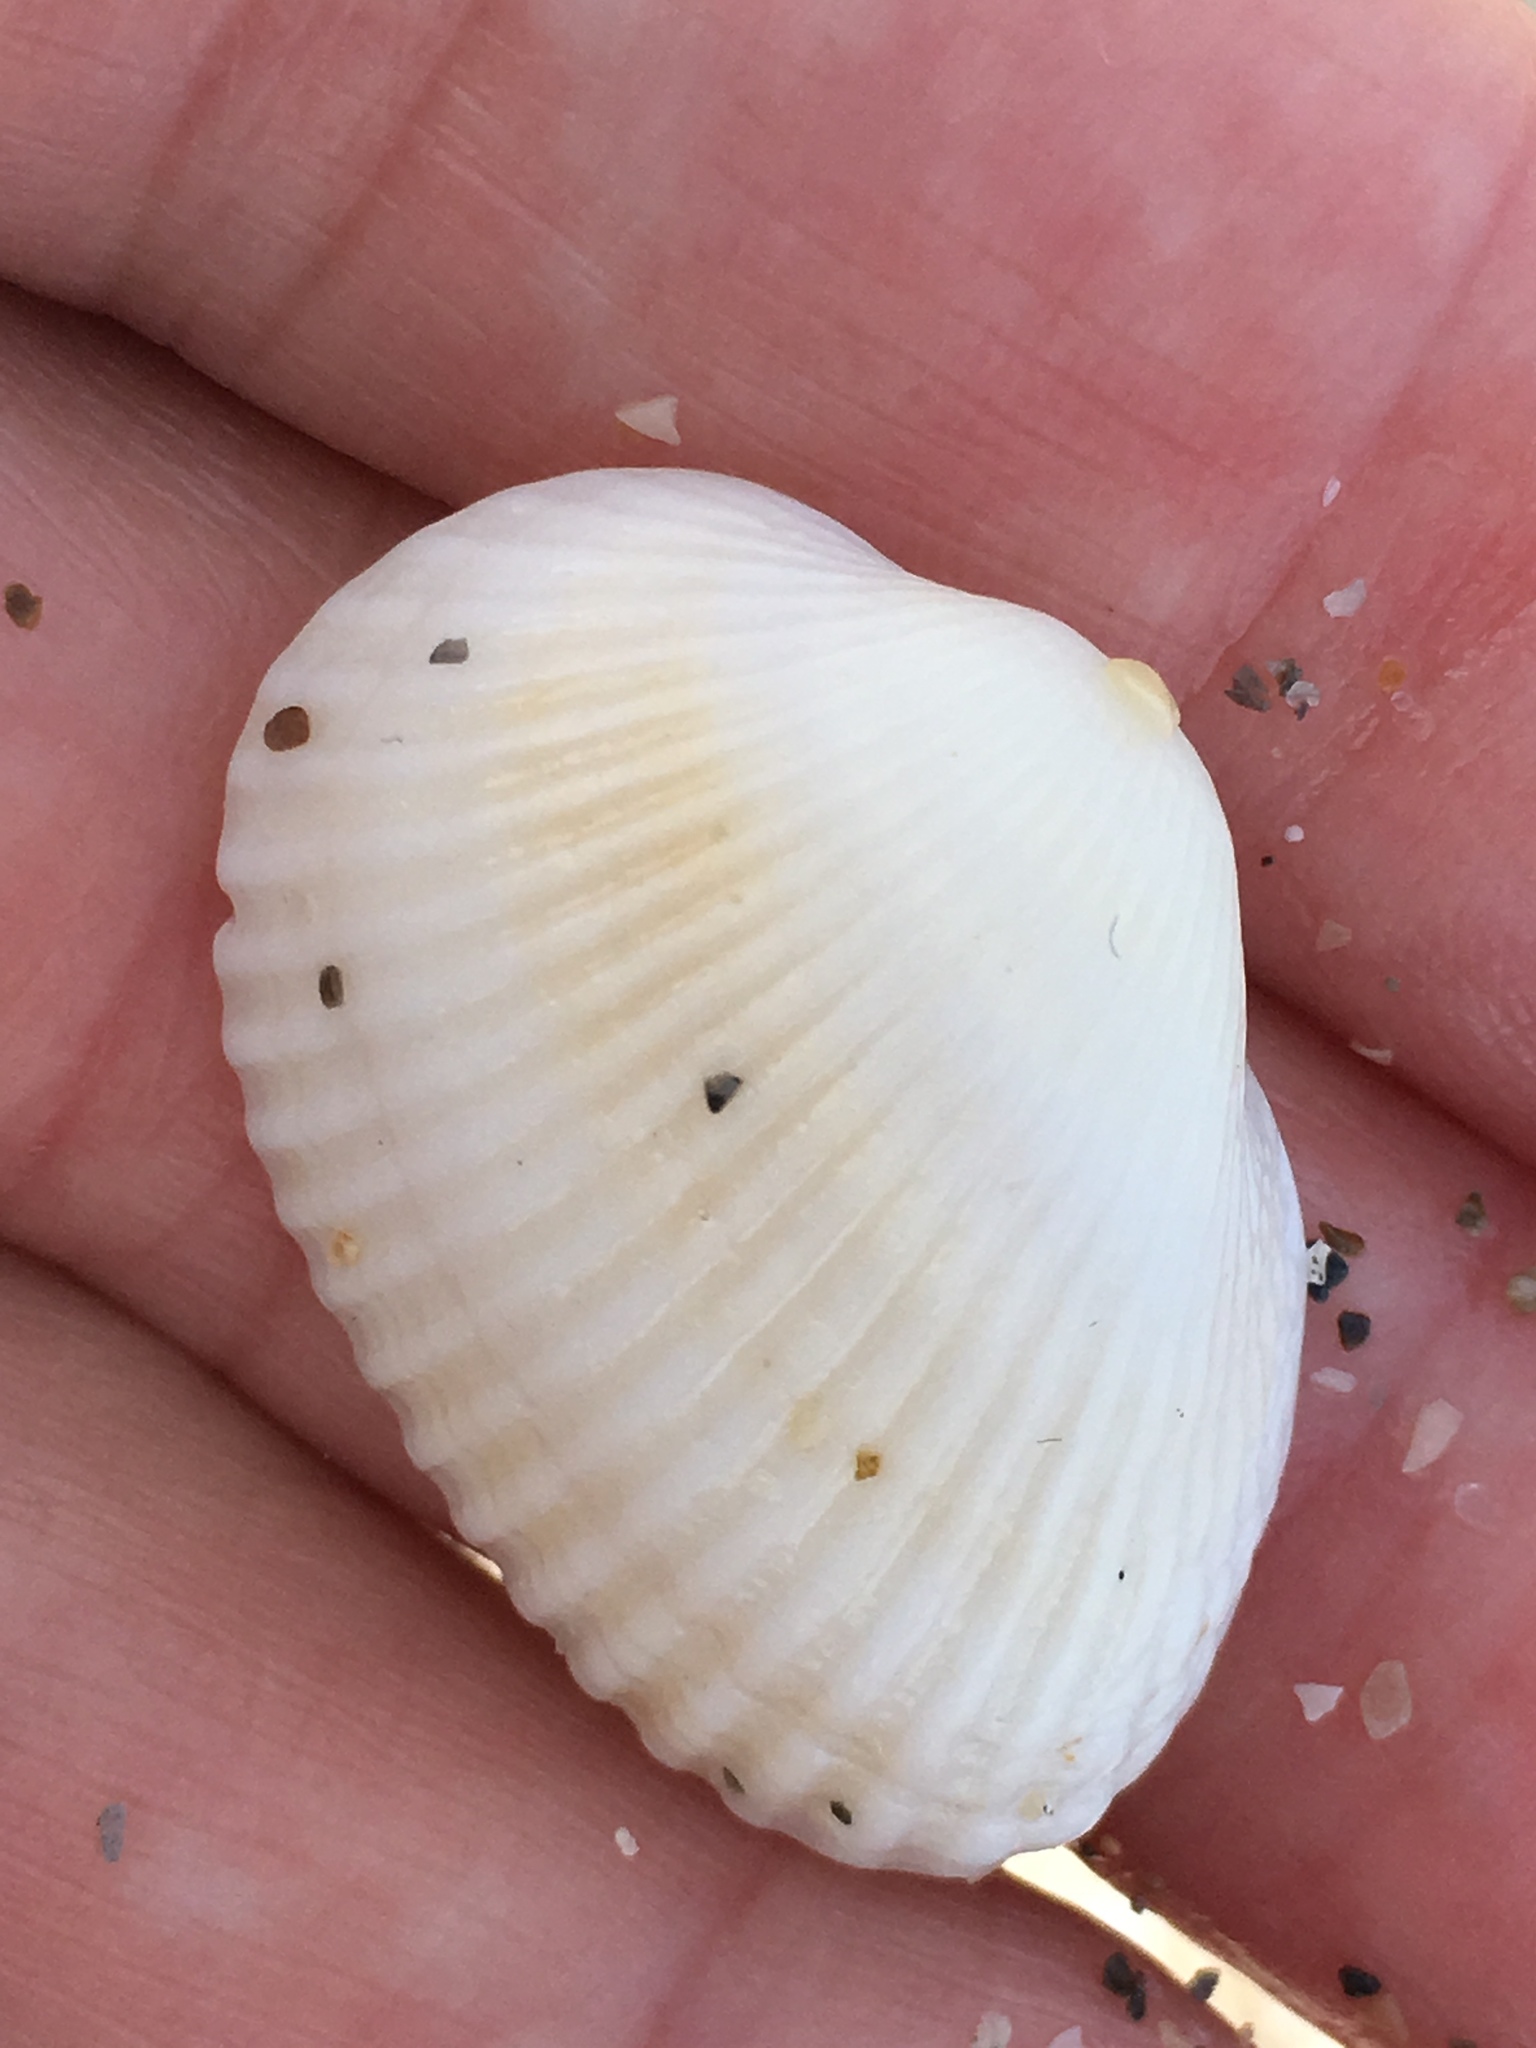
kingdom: Animalia
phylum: Mollusca
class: Bivalvia
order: Arcida
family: Arcidae
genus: Anadara
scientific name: Anadara transversa
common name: Transverse ark
